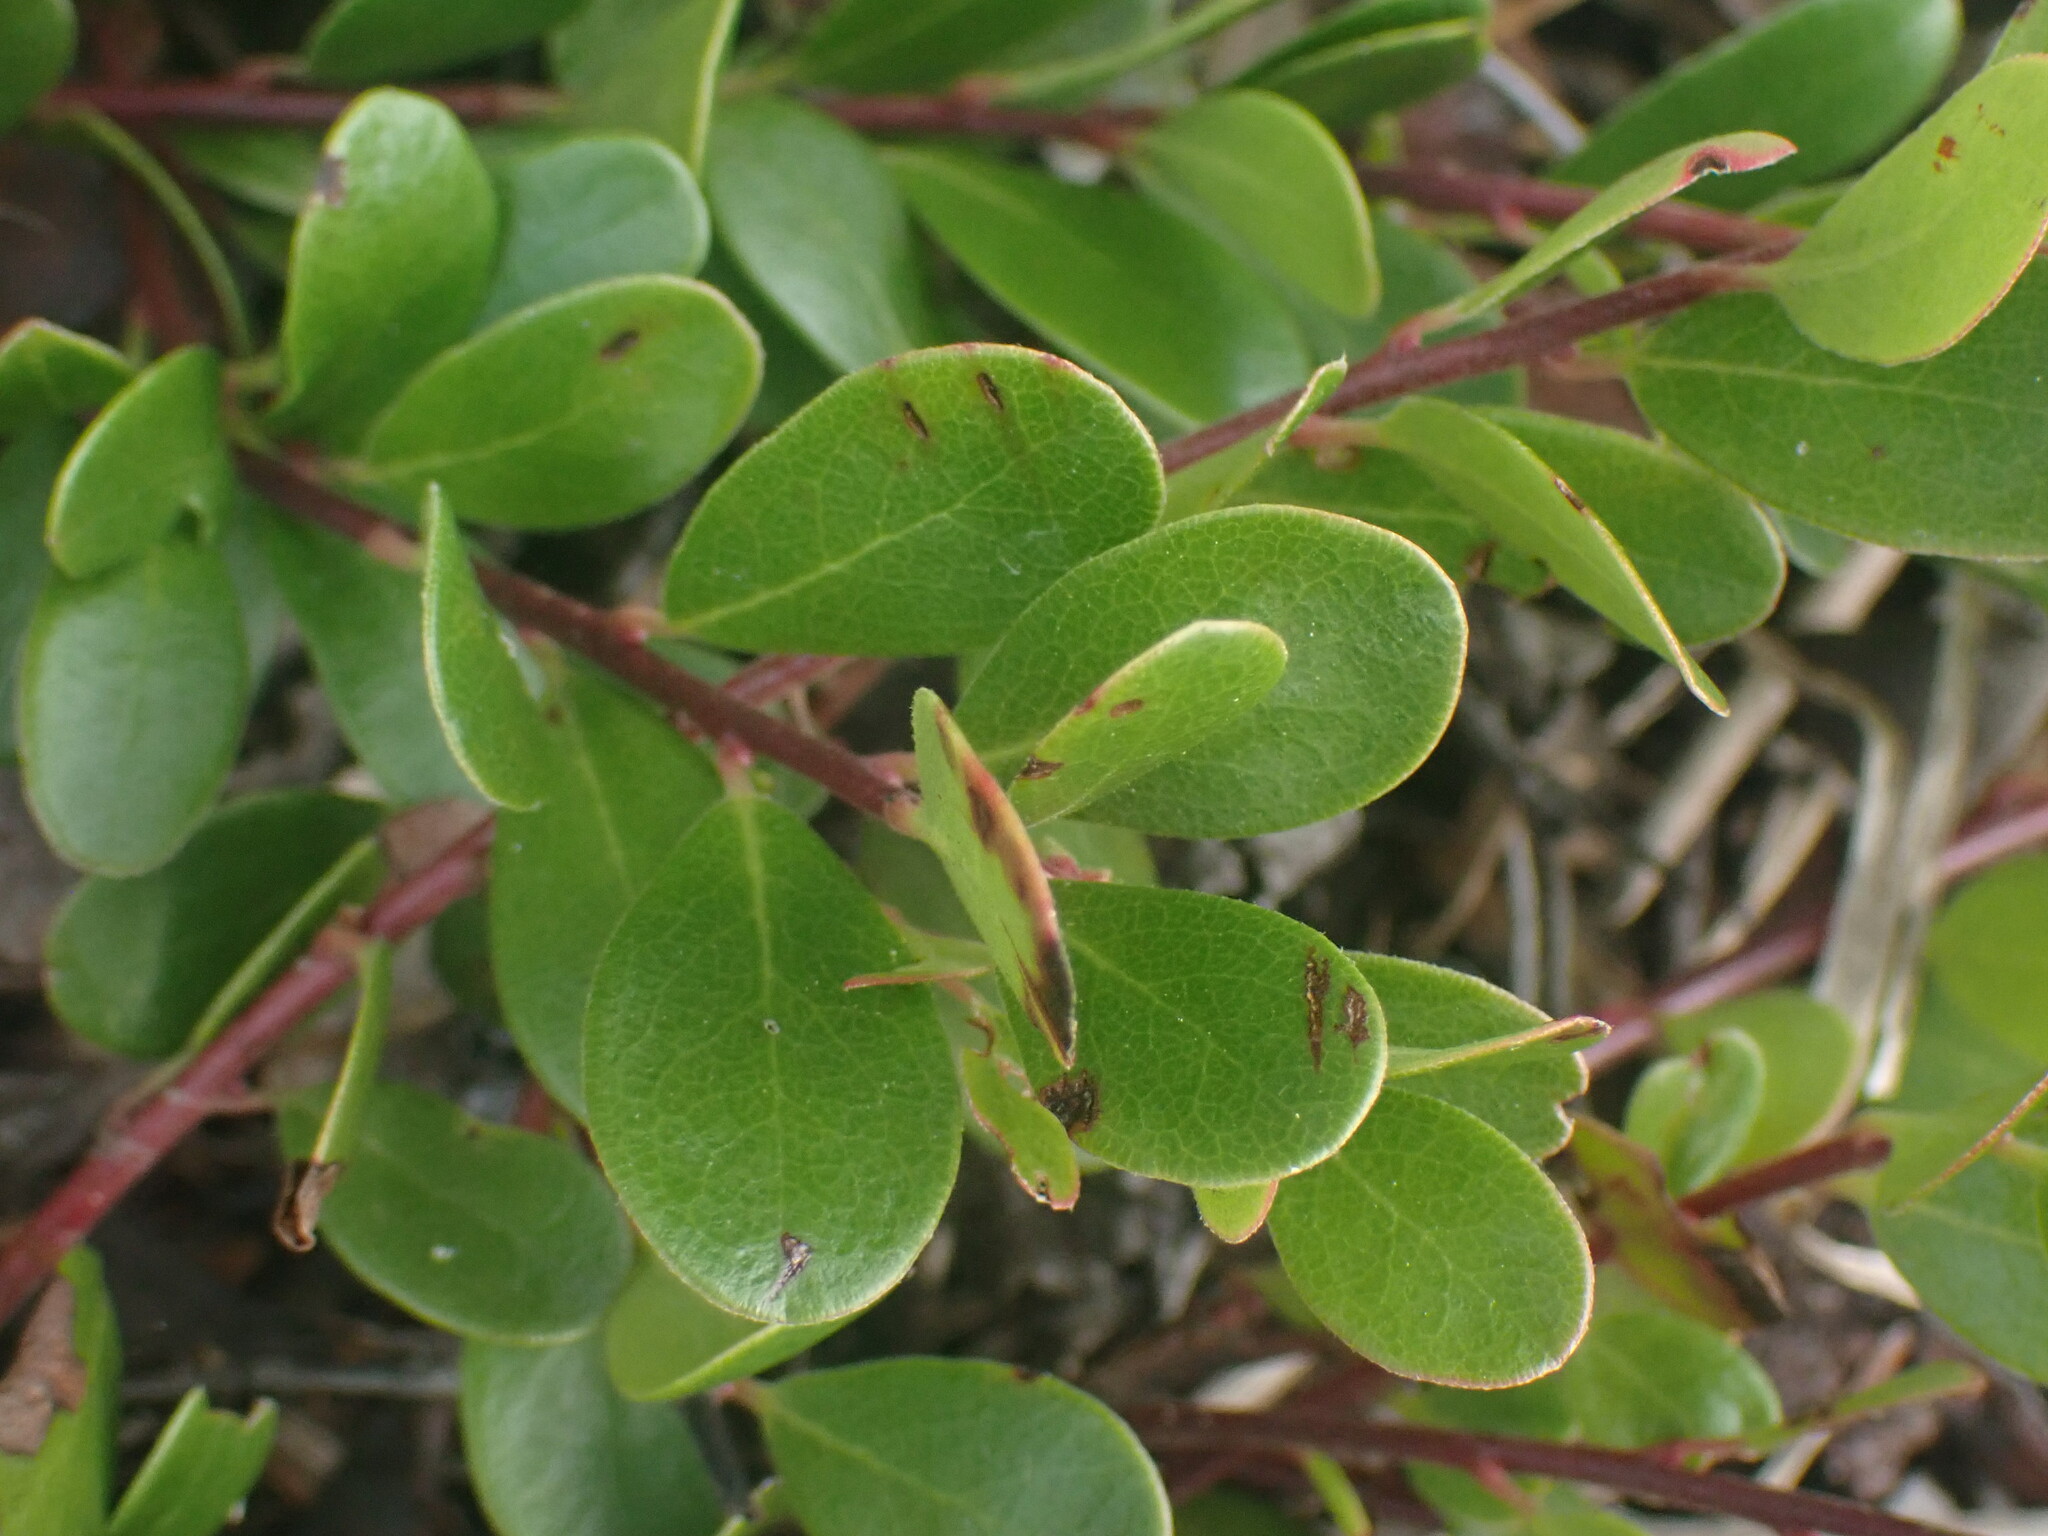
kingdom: Plantae
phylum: Tracheophyta
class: Magnoliopsida
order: Ericales
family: Ericaceae
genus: Arctostaphylos
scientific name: Arctostaphylos uva-ursi
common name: Bearberry
